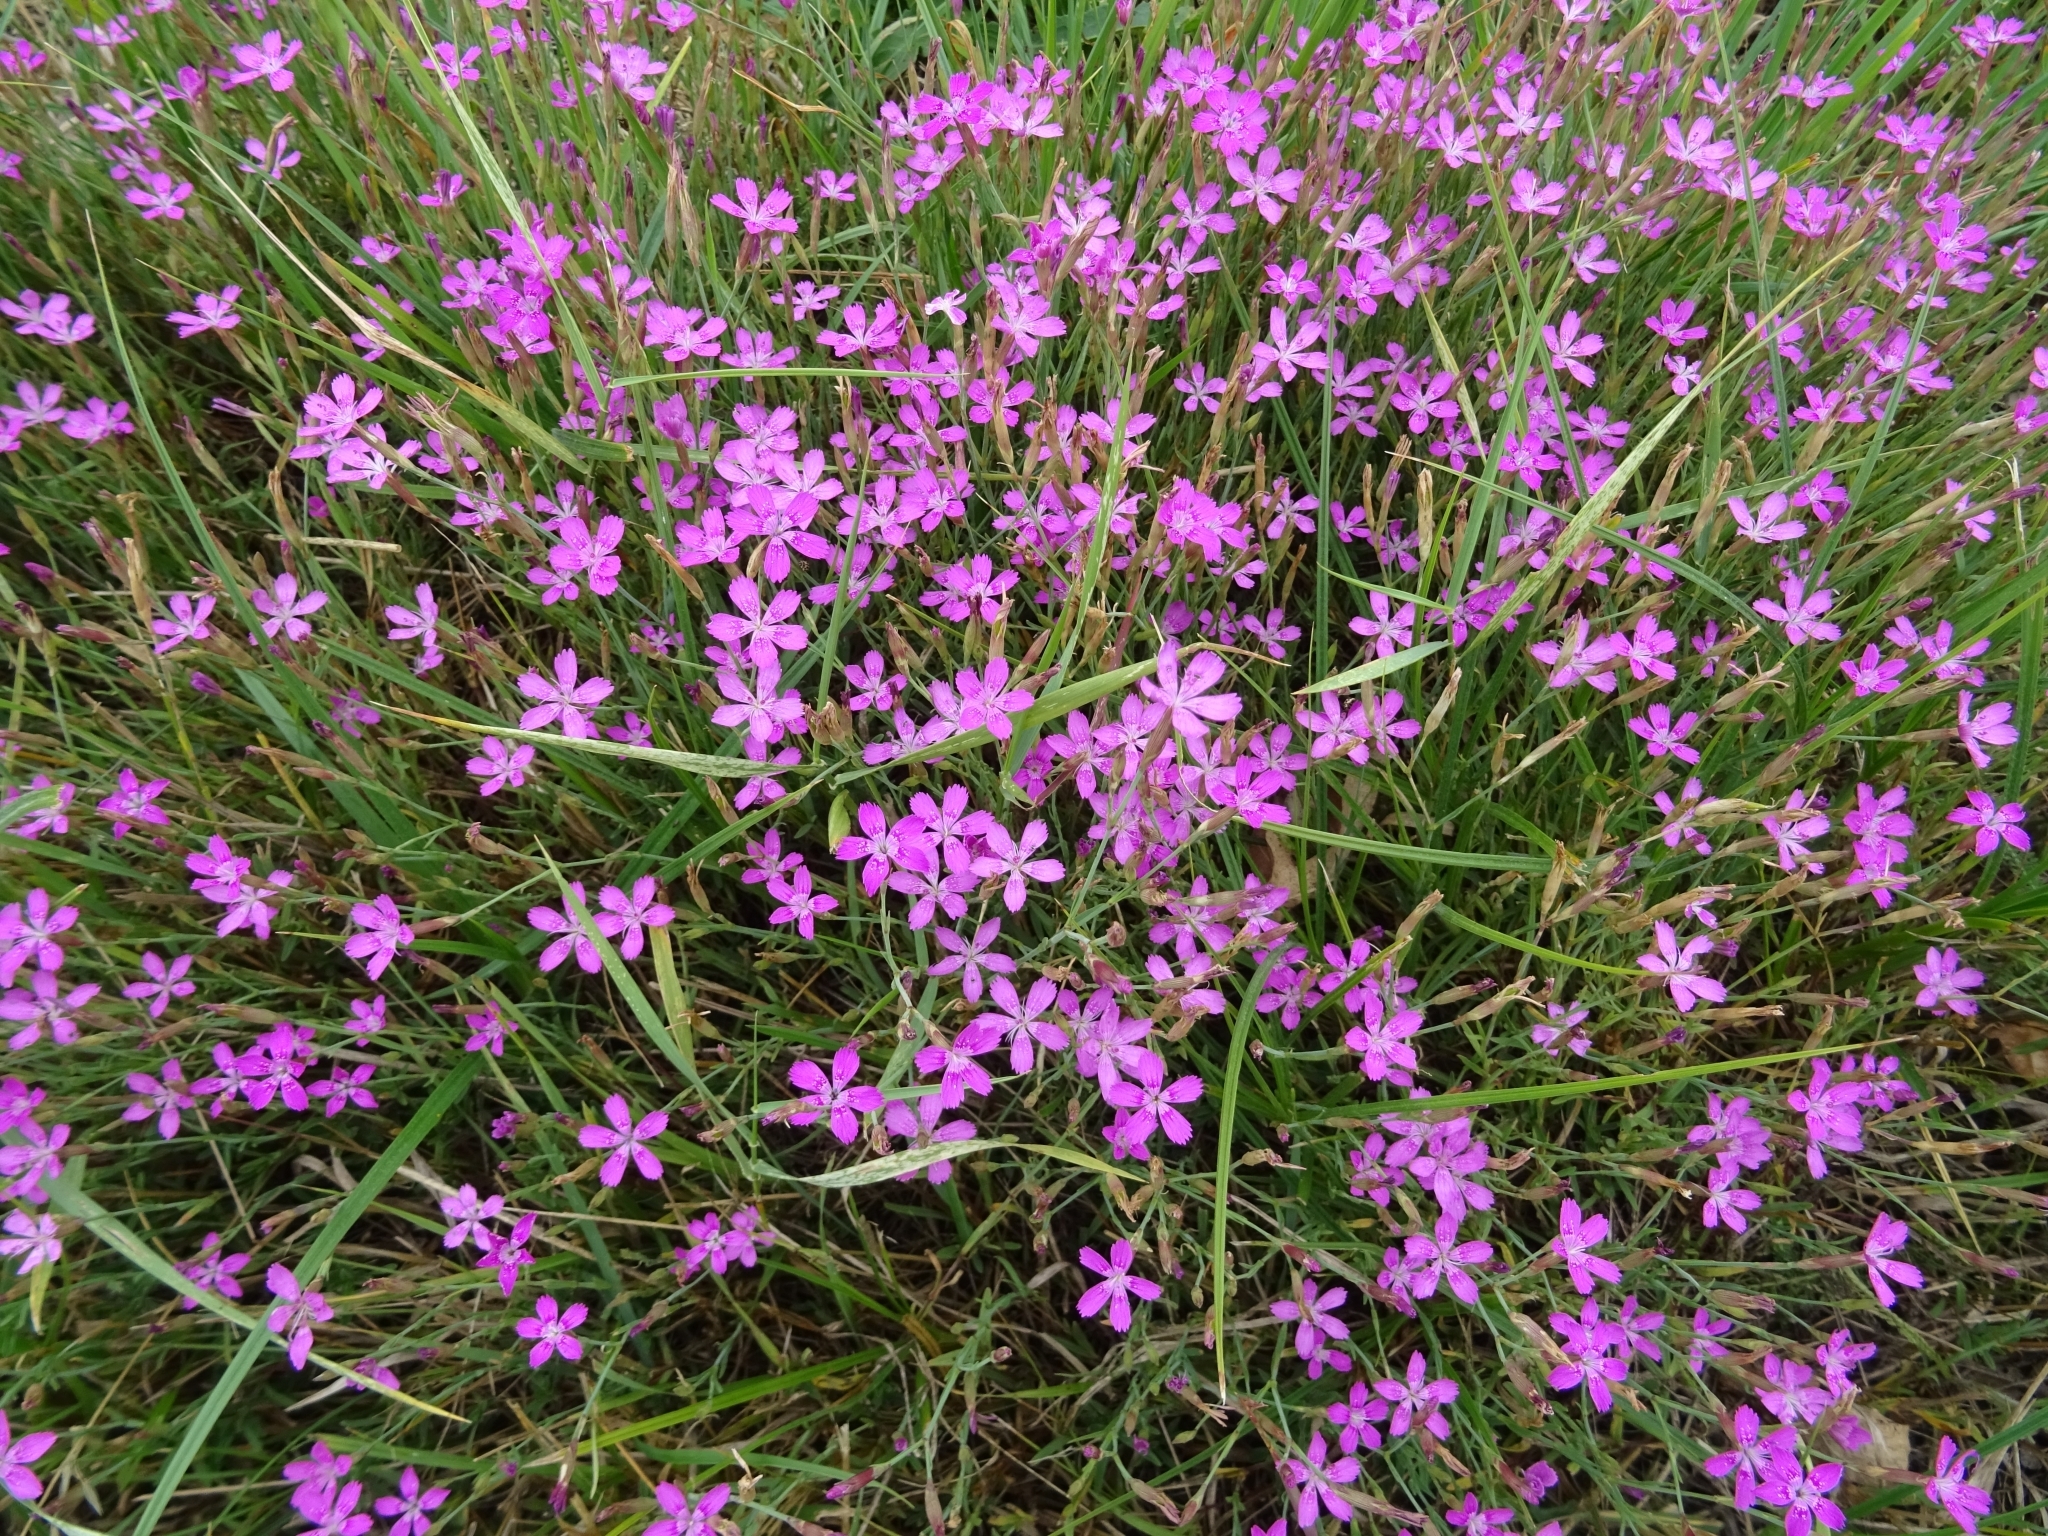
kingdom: Plantae
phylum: Tracheophyta
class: Magnoliopsida
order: Caryophyllales
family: Caryophyllaceae
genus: Dianthus
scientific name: Dianthus deltoides
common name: Maiden pink
